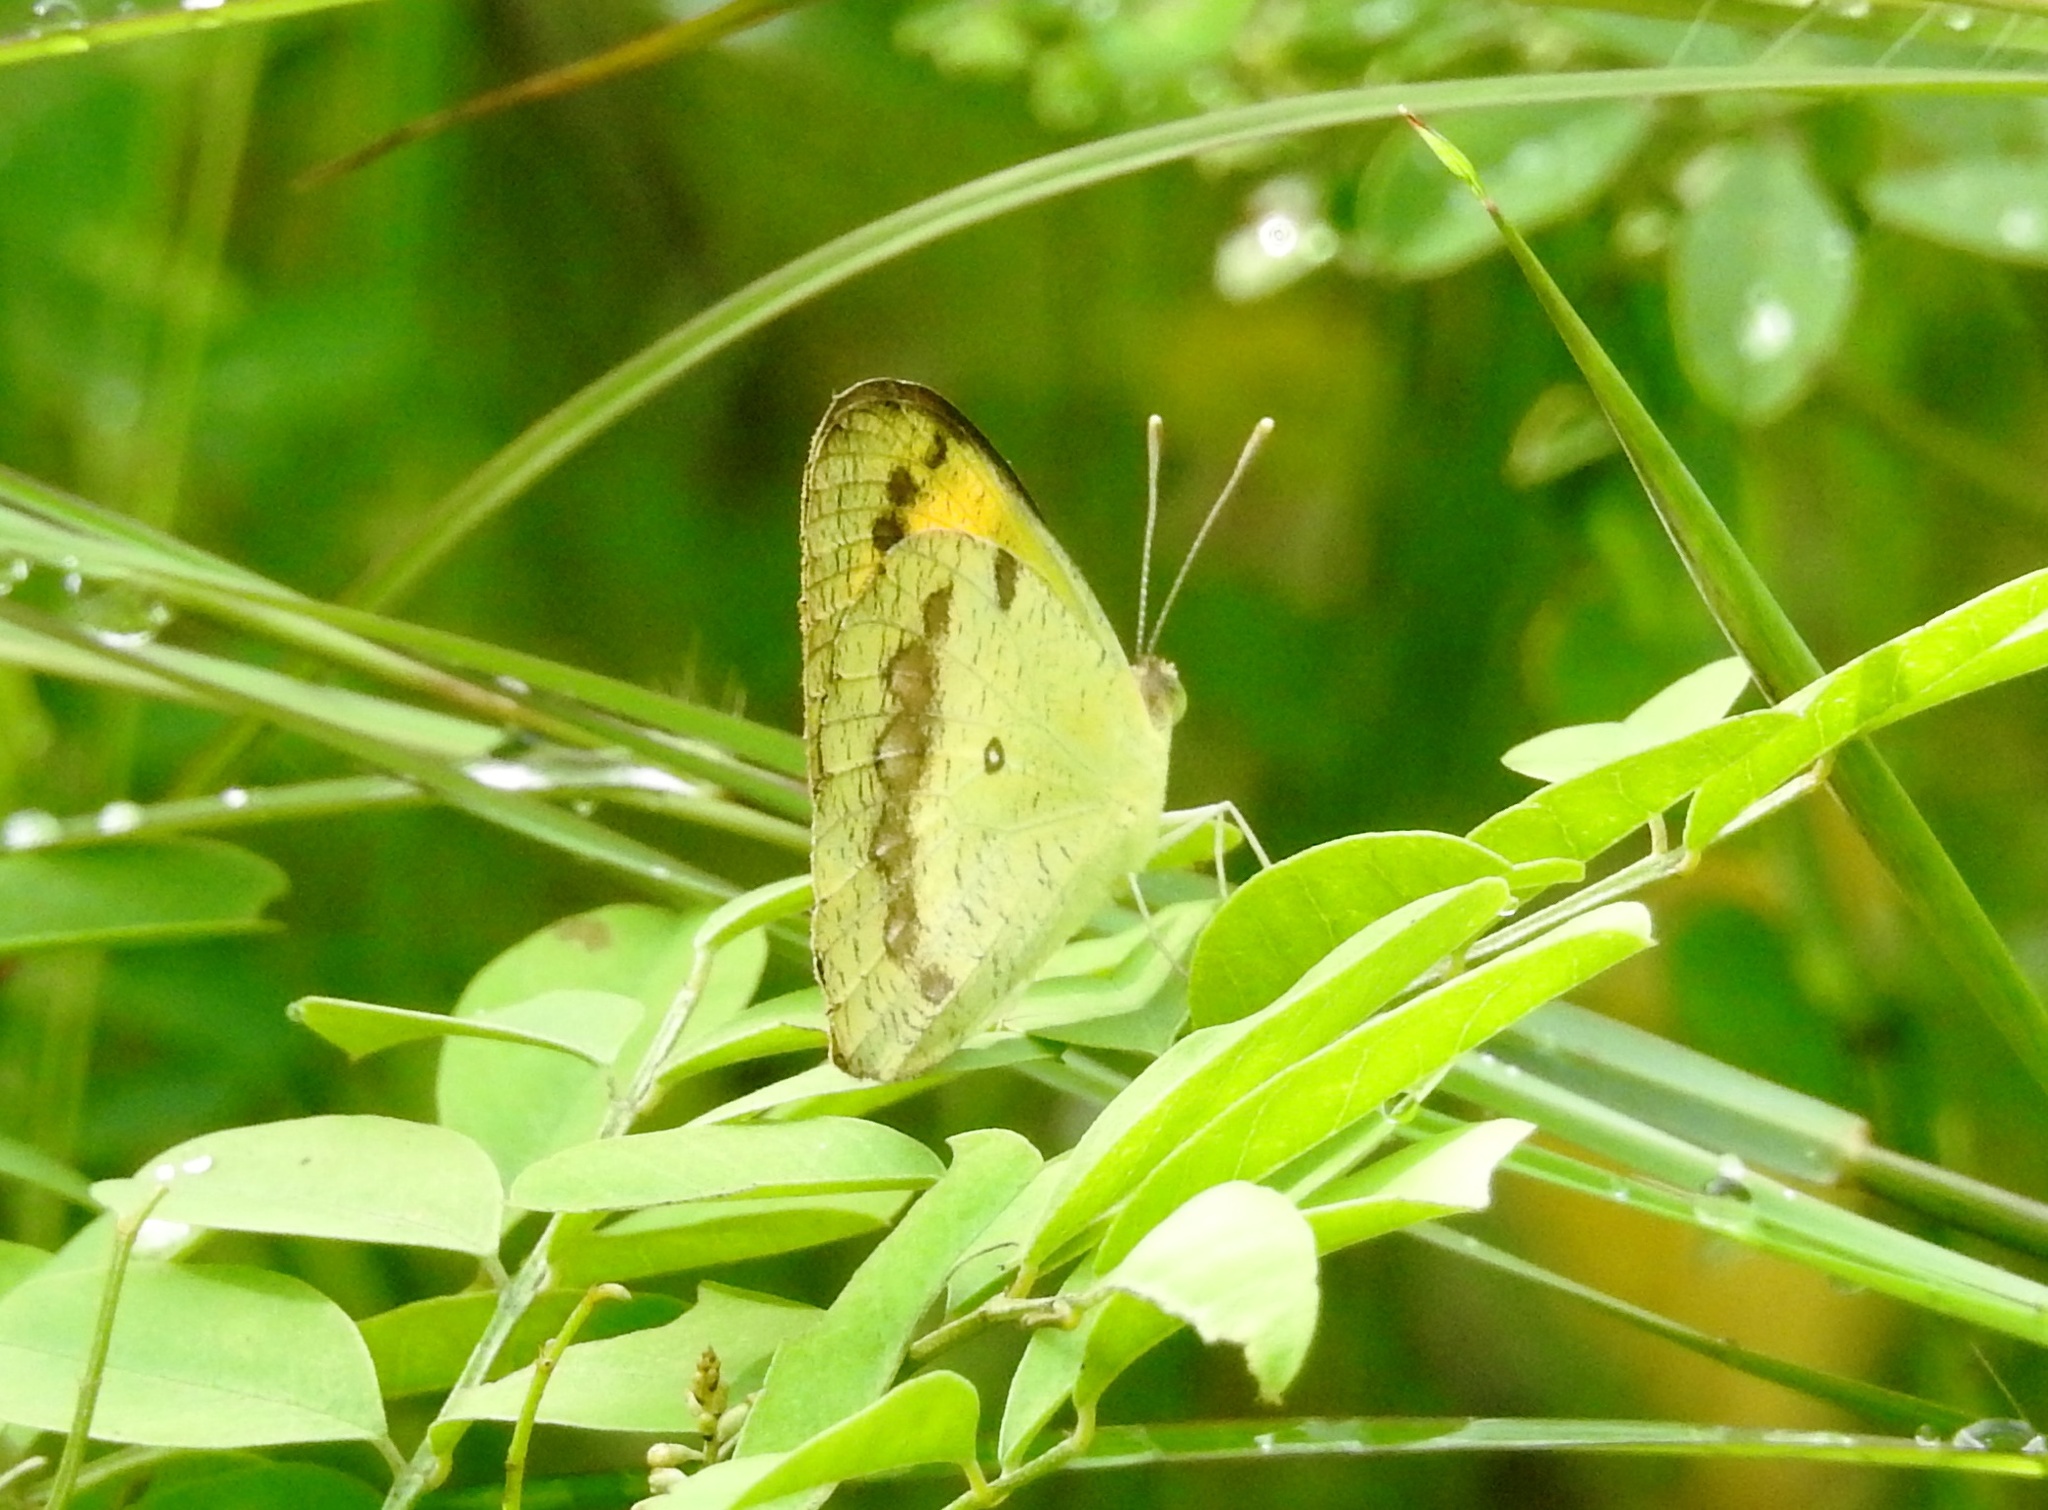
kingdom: Animalia
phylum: Arthropoda
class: Insecta
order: Lepidoptera
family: Pieridae
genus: Ixias
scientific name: Ixias pyrene
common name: Yellow orange tip
